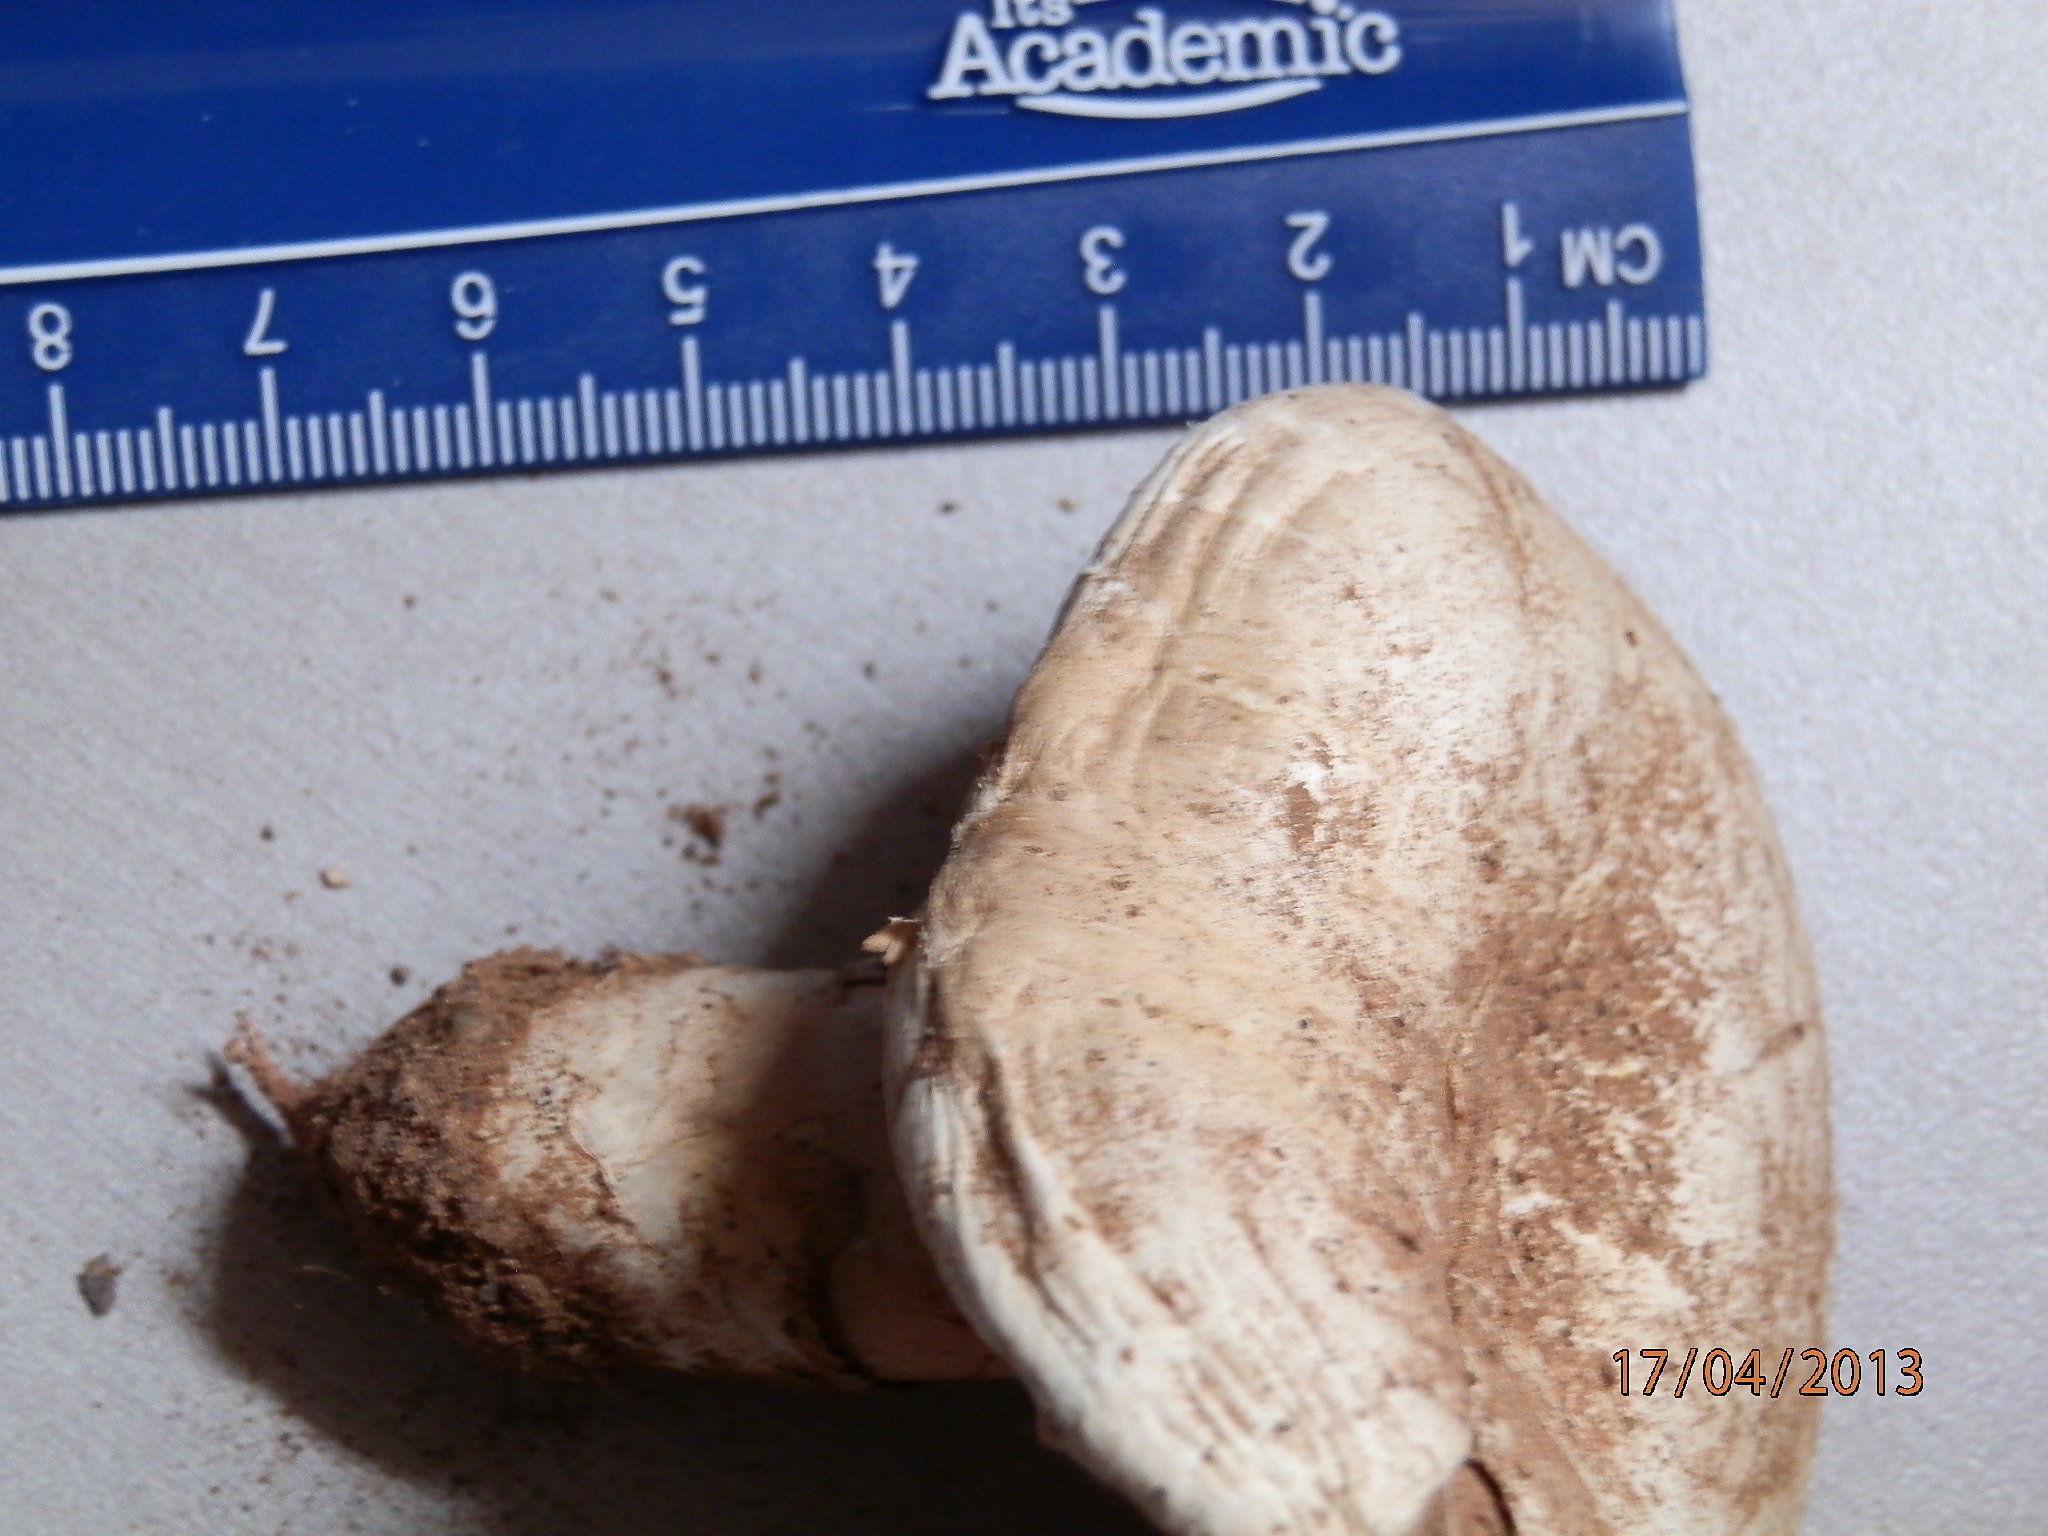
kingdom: Fungi
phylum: Basidiomycota
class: Agaricomycetes
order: Agaricales
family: Agaricaceae
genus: Agaricus
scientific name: Agaricus bitorquis
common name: Pavement mushroom
